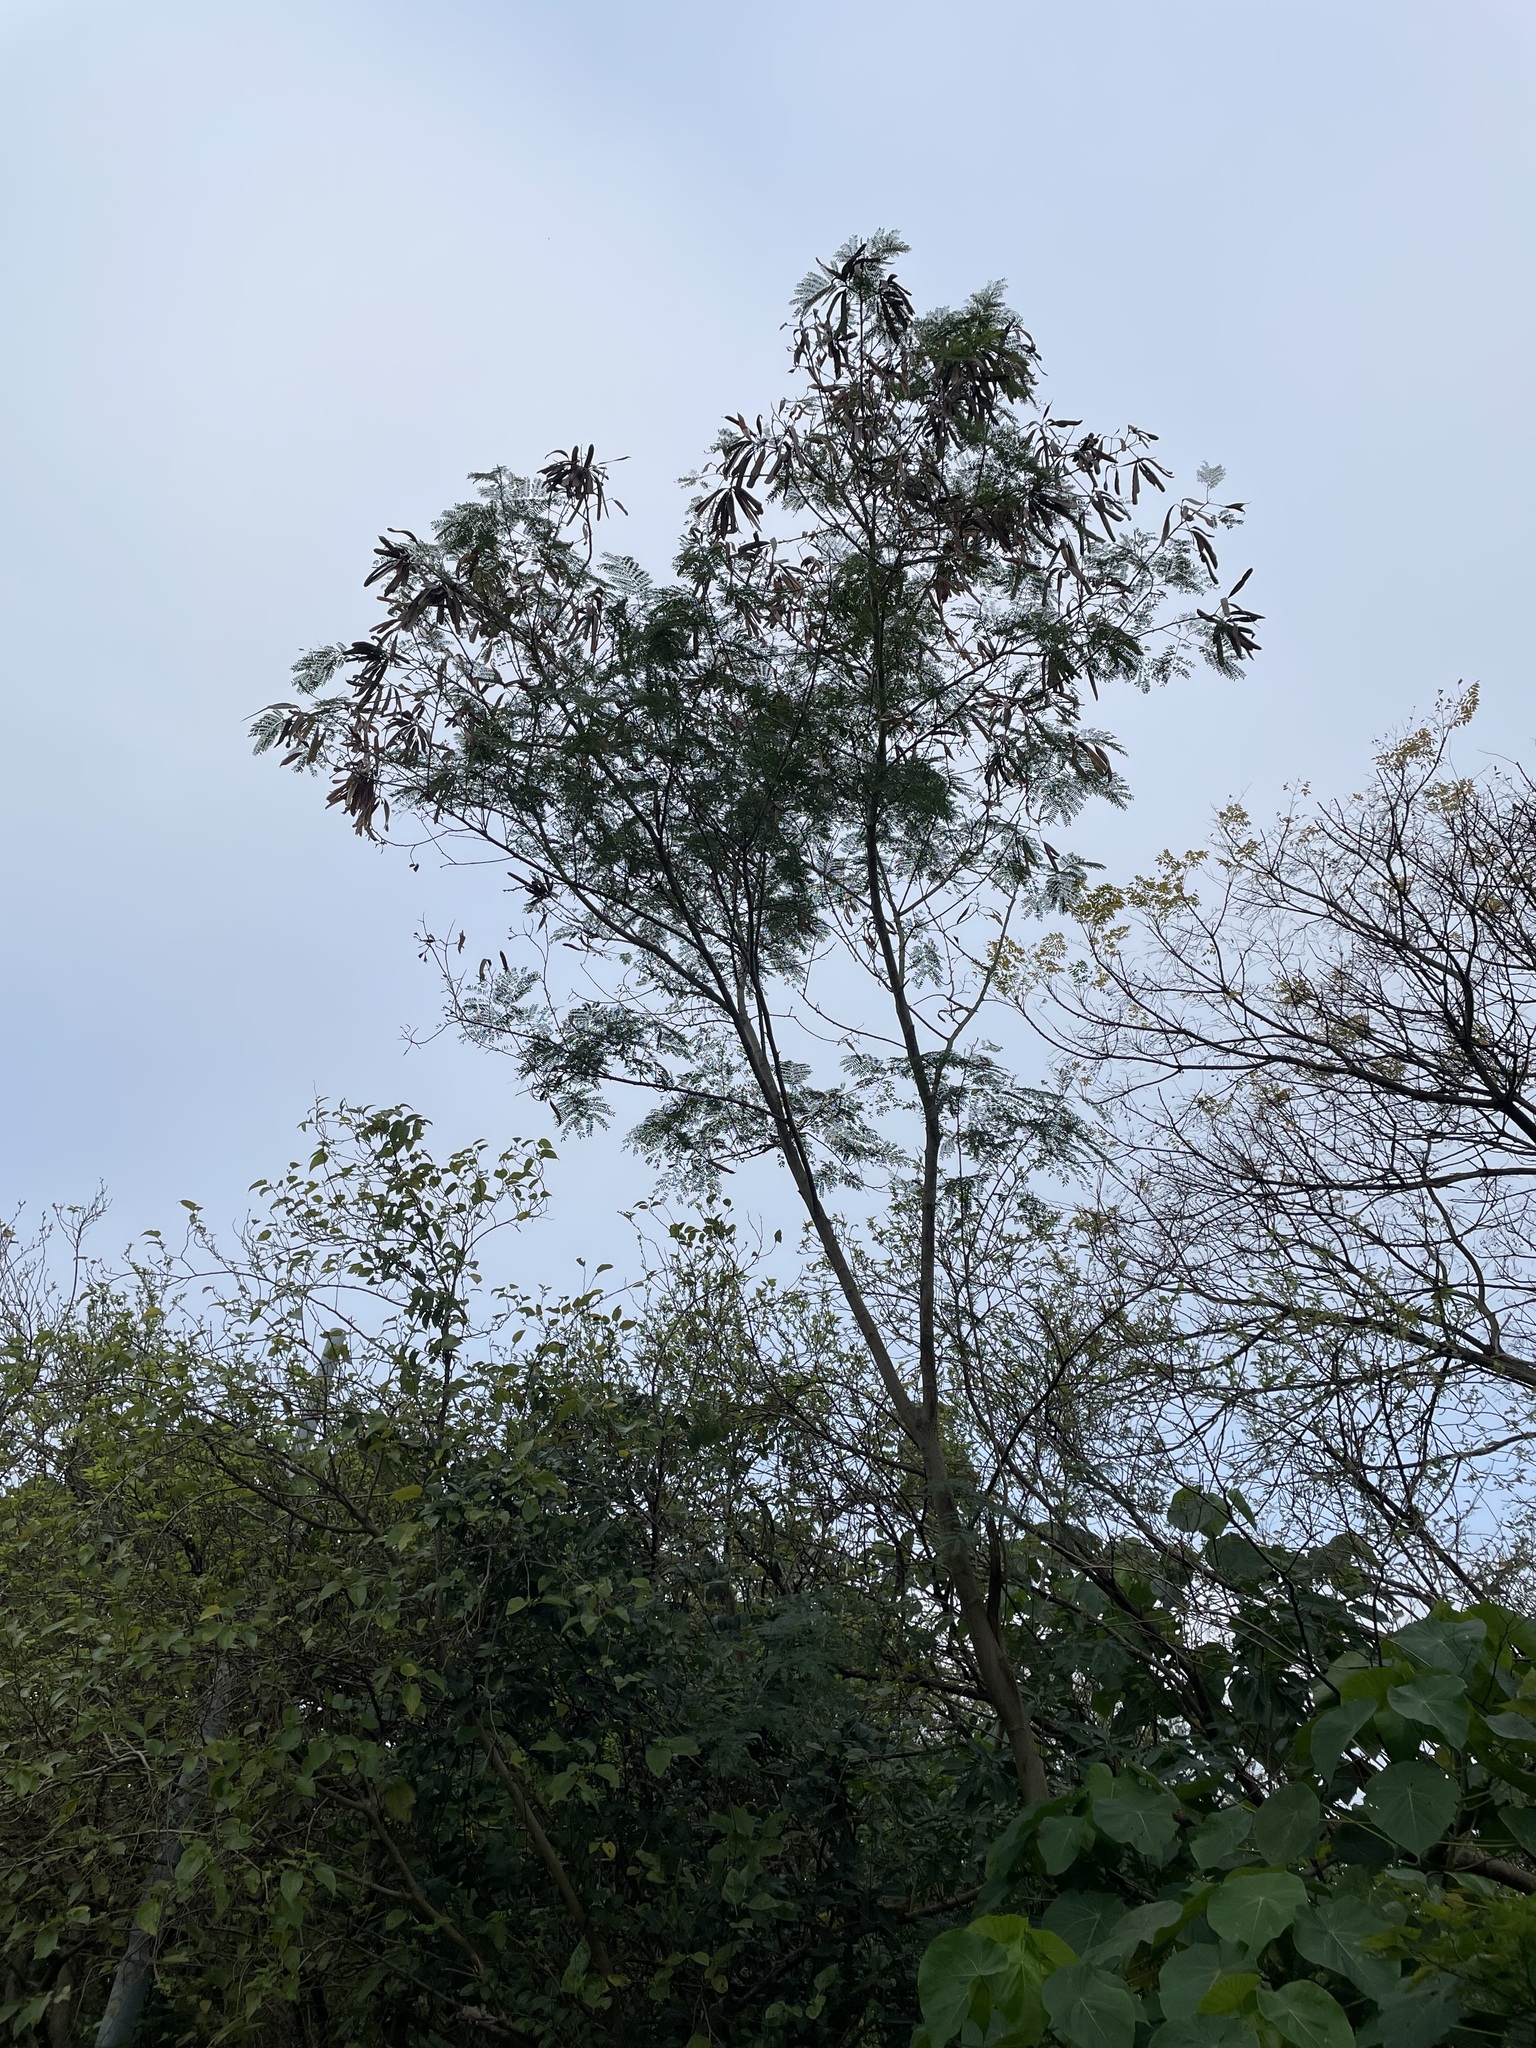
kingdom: Plantae
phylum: Tracheophyta
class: Magnoliopsida
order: Fabales
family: Fabaceae
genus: Leucaena
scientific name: Leucaena leucocephala
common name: White leadtree
